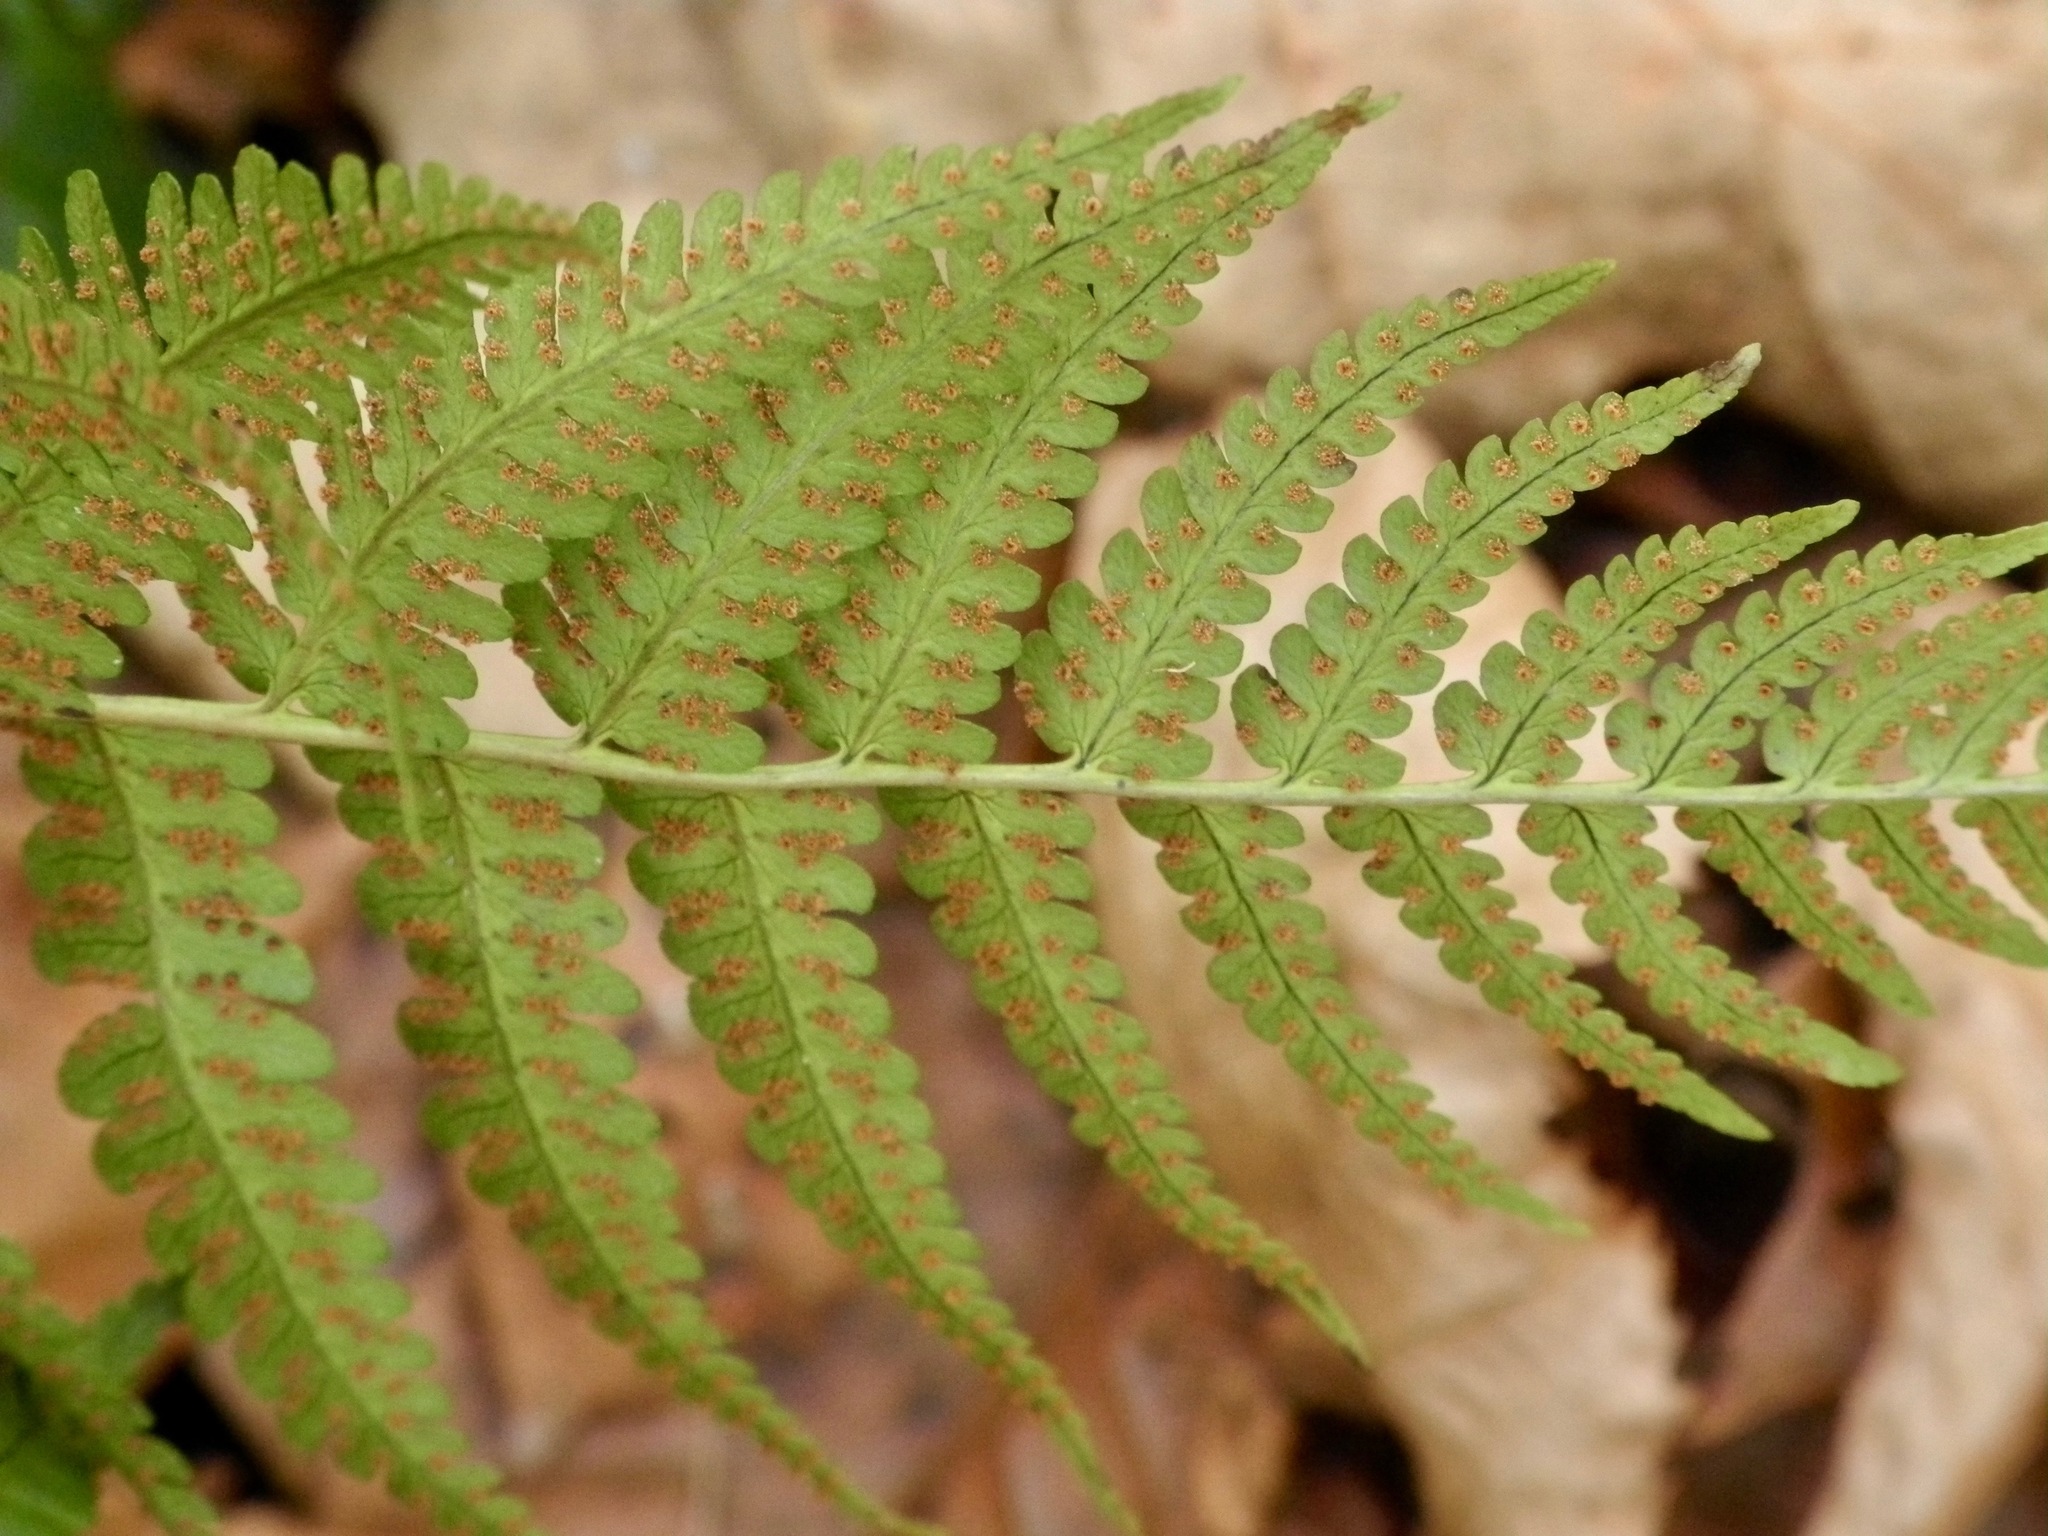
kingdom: Plantae
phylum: Tracheophyta
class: Polypodiopsida
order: Polypodiales
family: Dryopteridaceae
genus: Dryopteris
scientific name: Dryopteris marginalis
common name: Marginal wood fern
